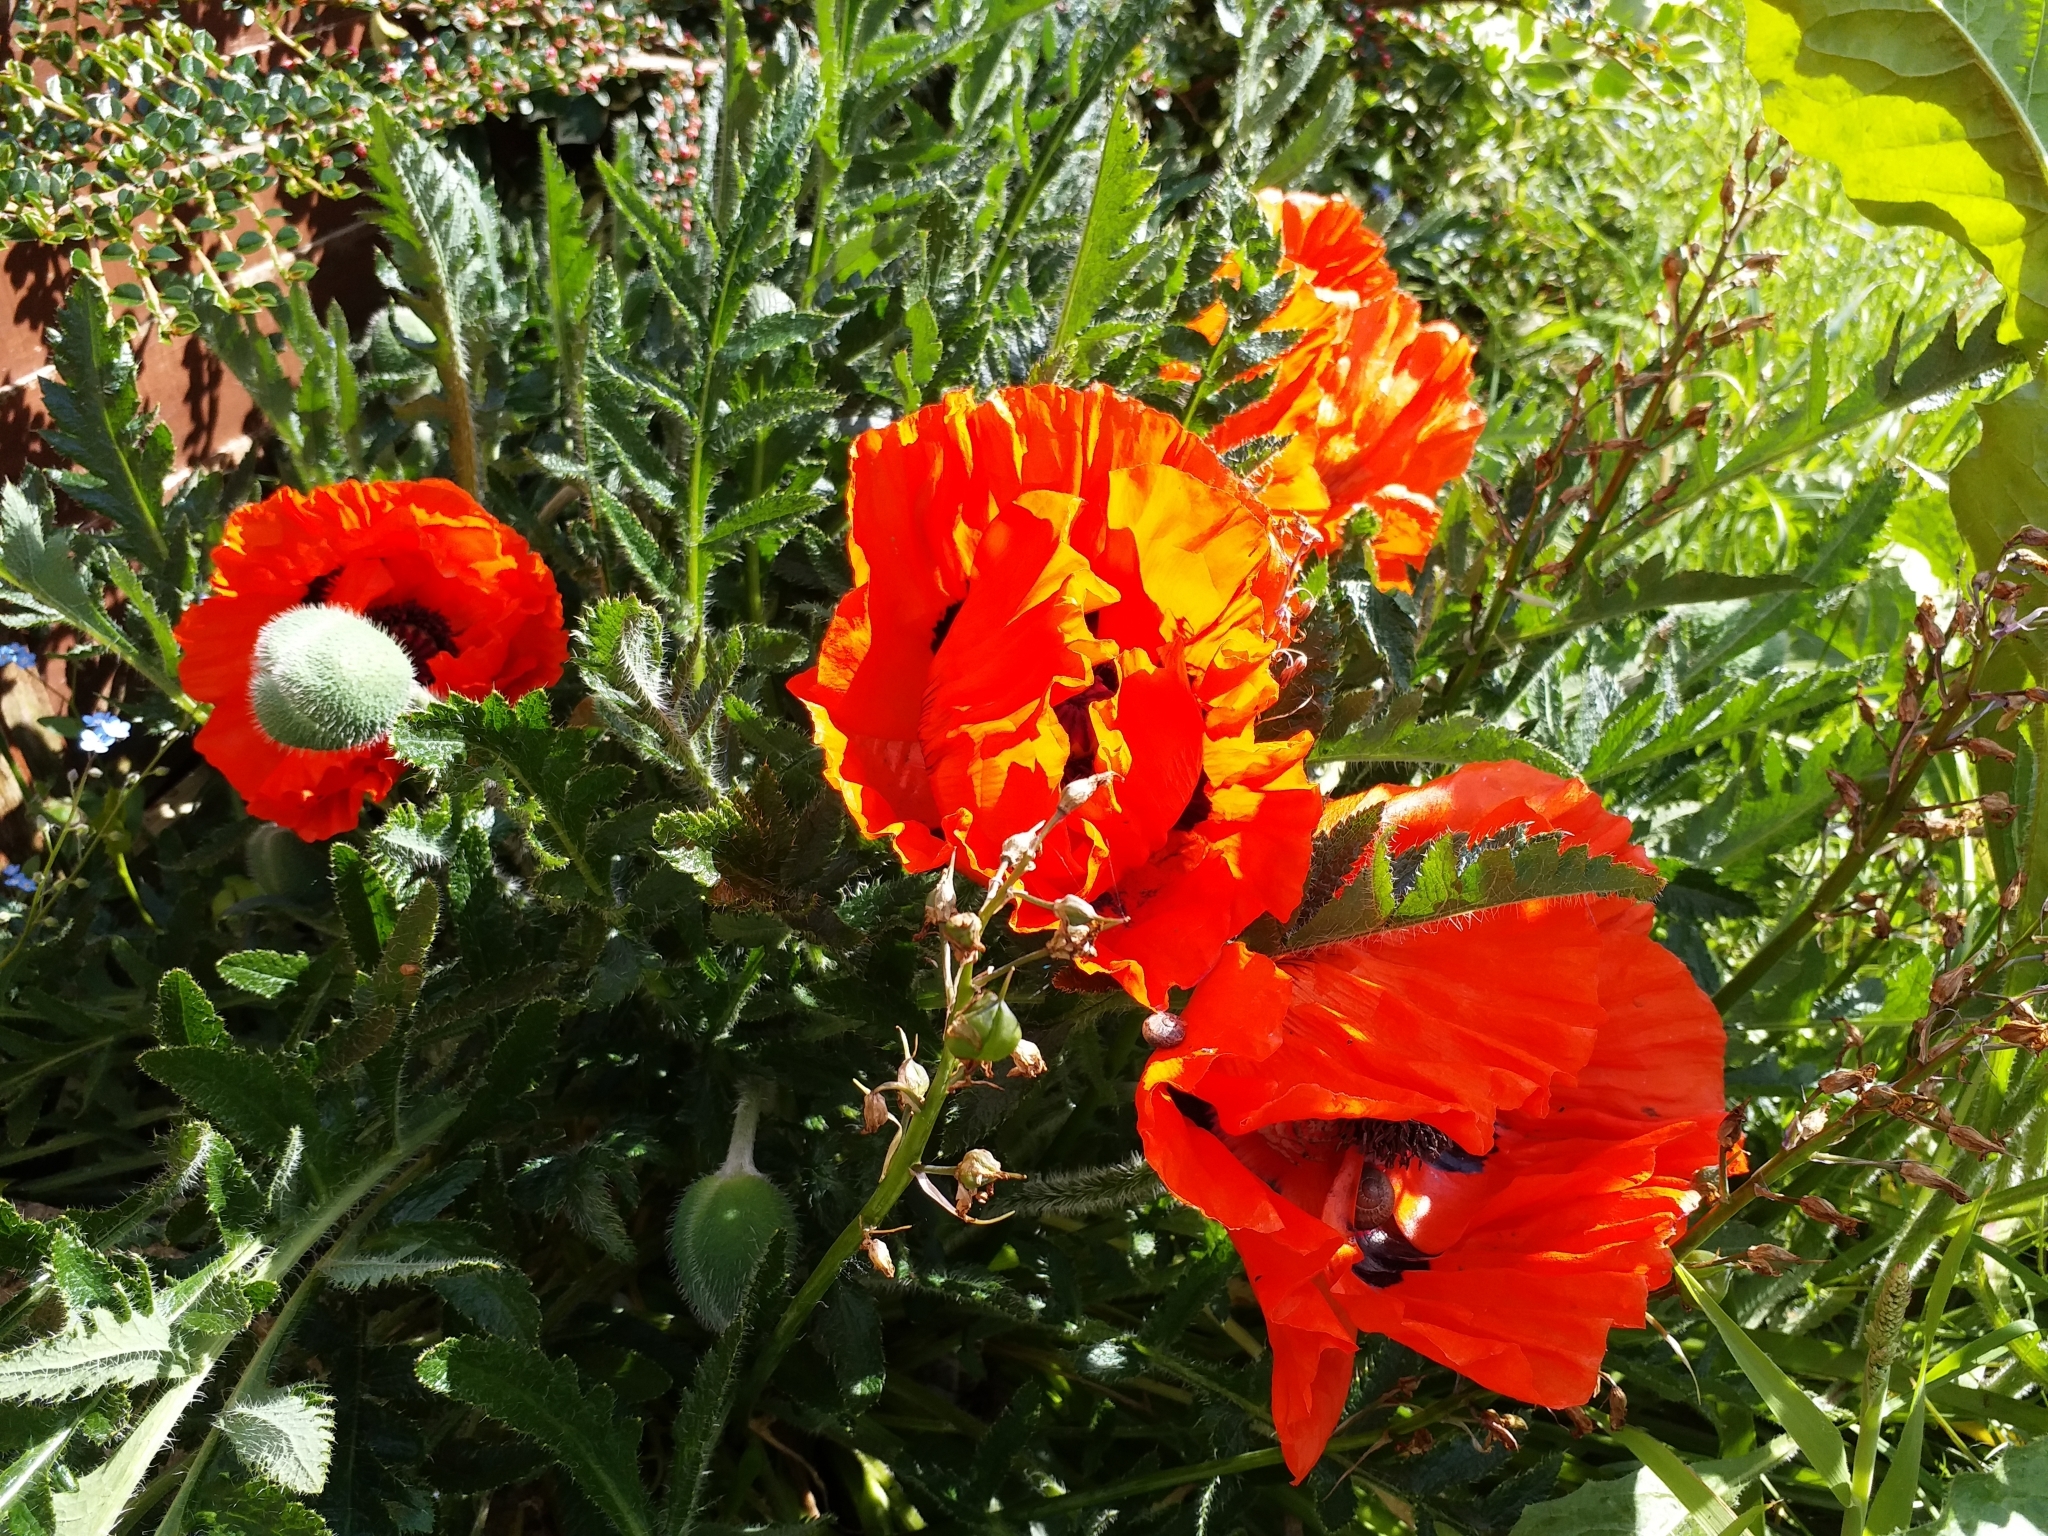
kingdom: Plantae
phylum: Tracheophyta
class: Magnoliopsida
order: Ranunculales
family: Papaveraceae
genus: Papaver
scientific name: Papaver orientale
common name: Oriental poppy
